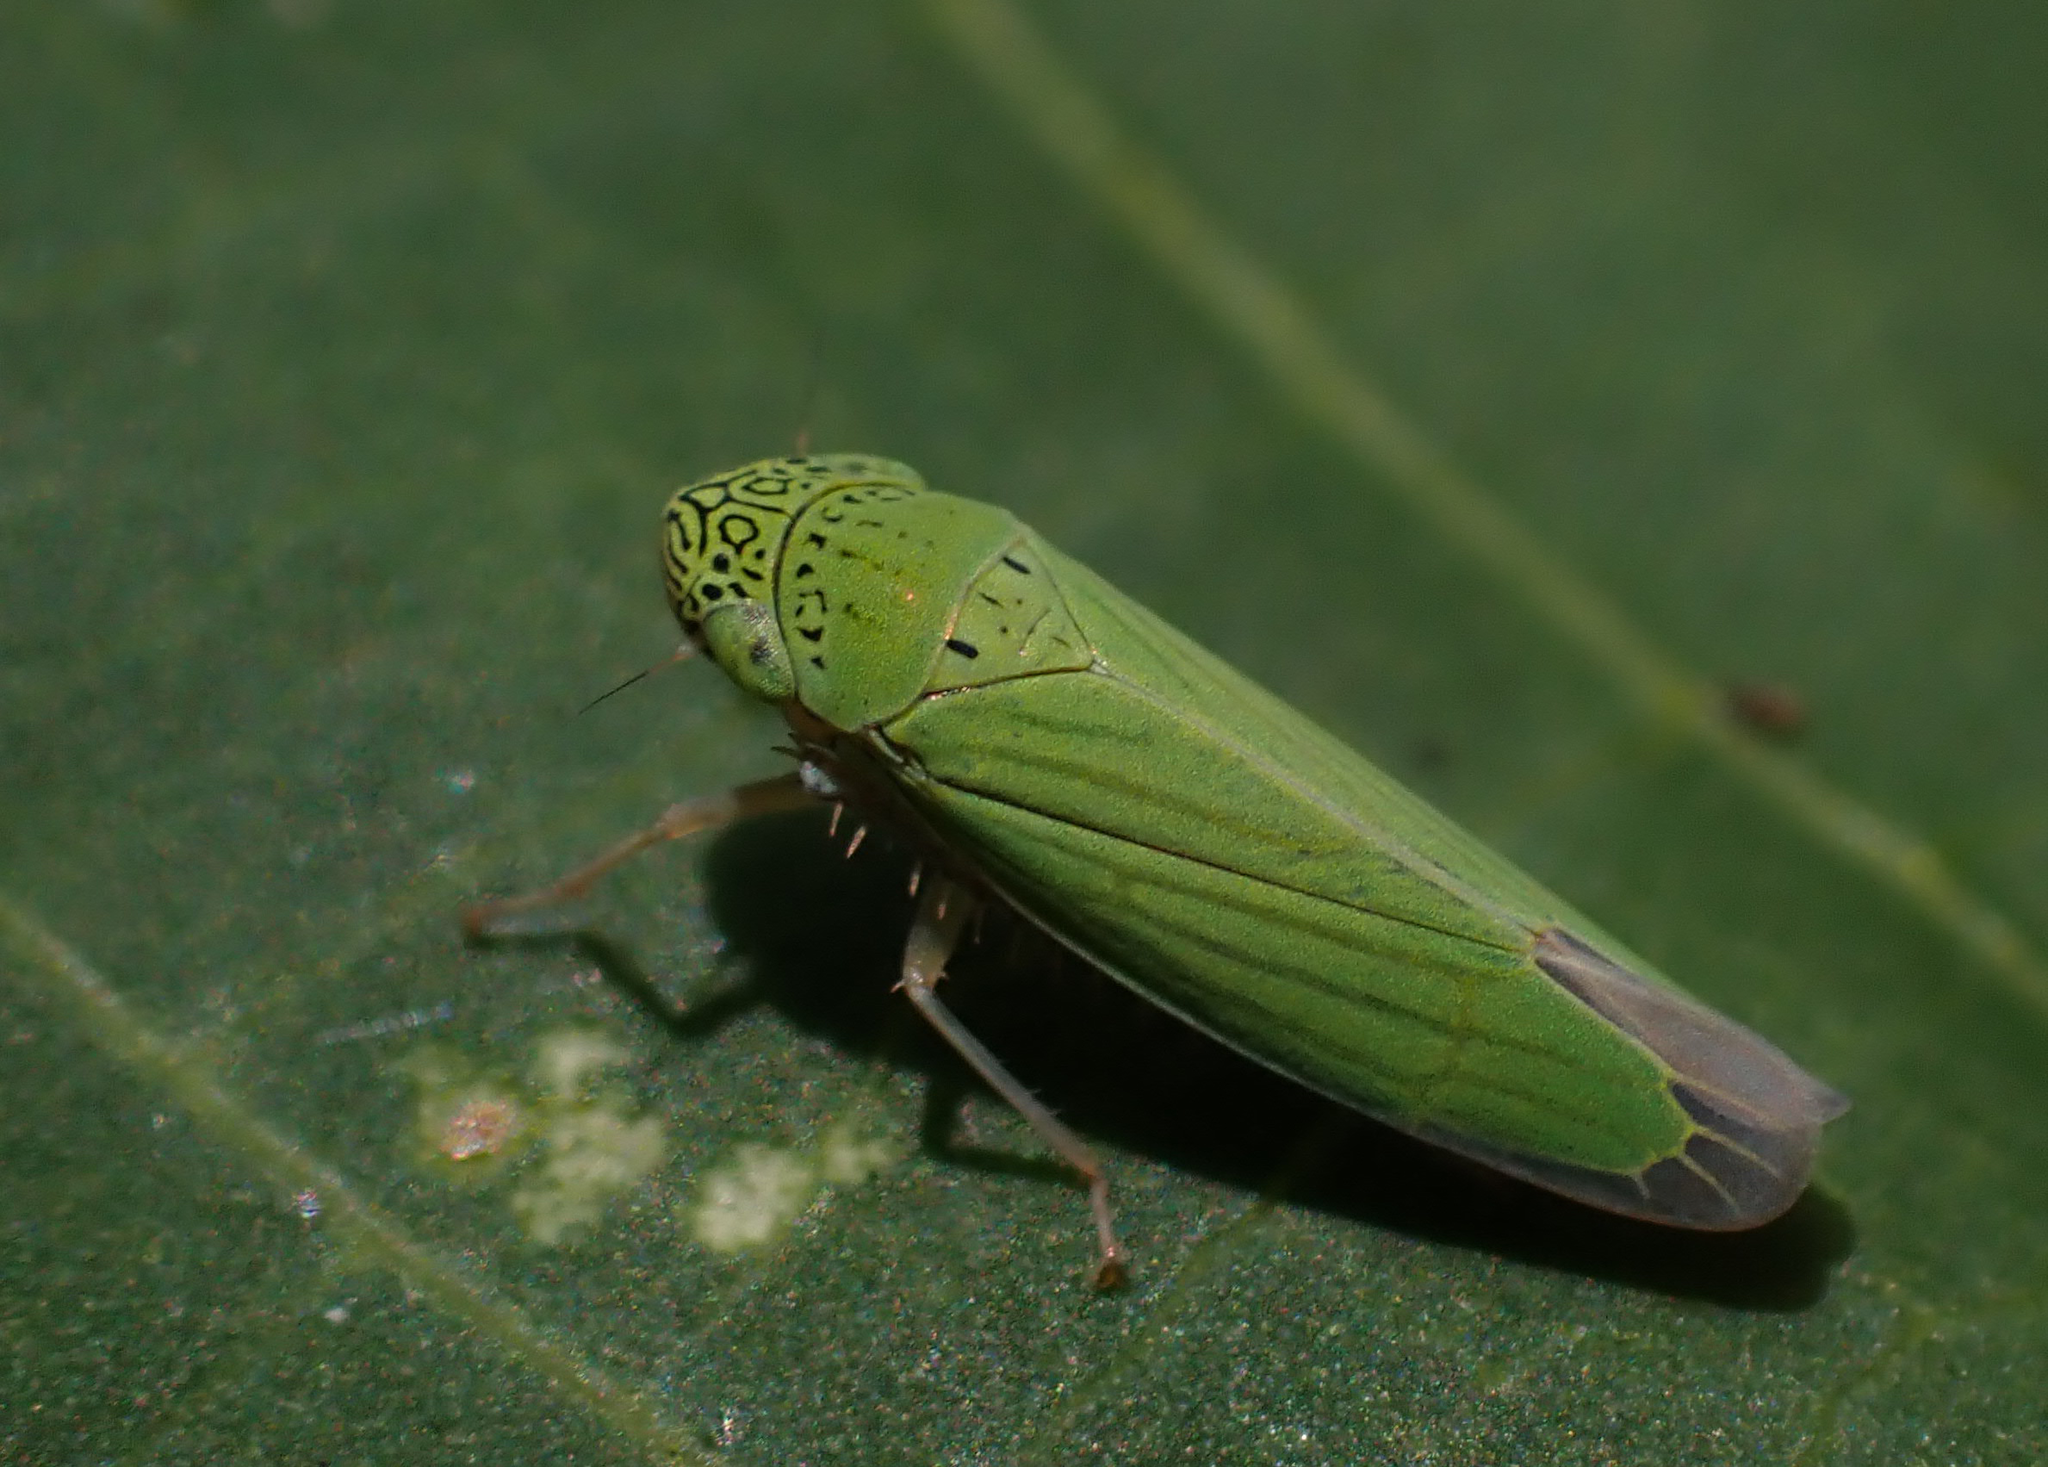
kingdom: Animalia
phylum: Arthropoda
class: Insecta
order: Hemiptera
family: Cicadellidae
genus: Hortensia
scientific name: Hortensia similis
